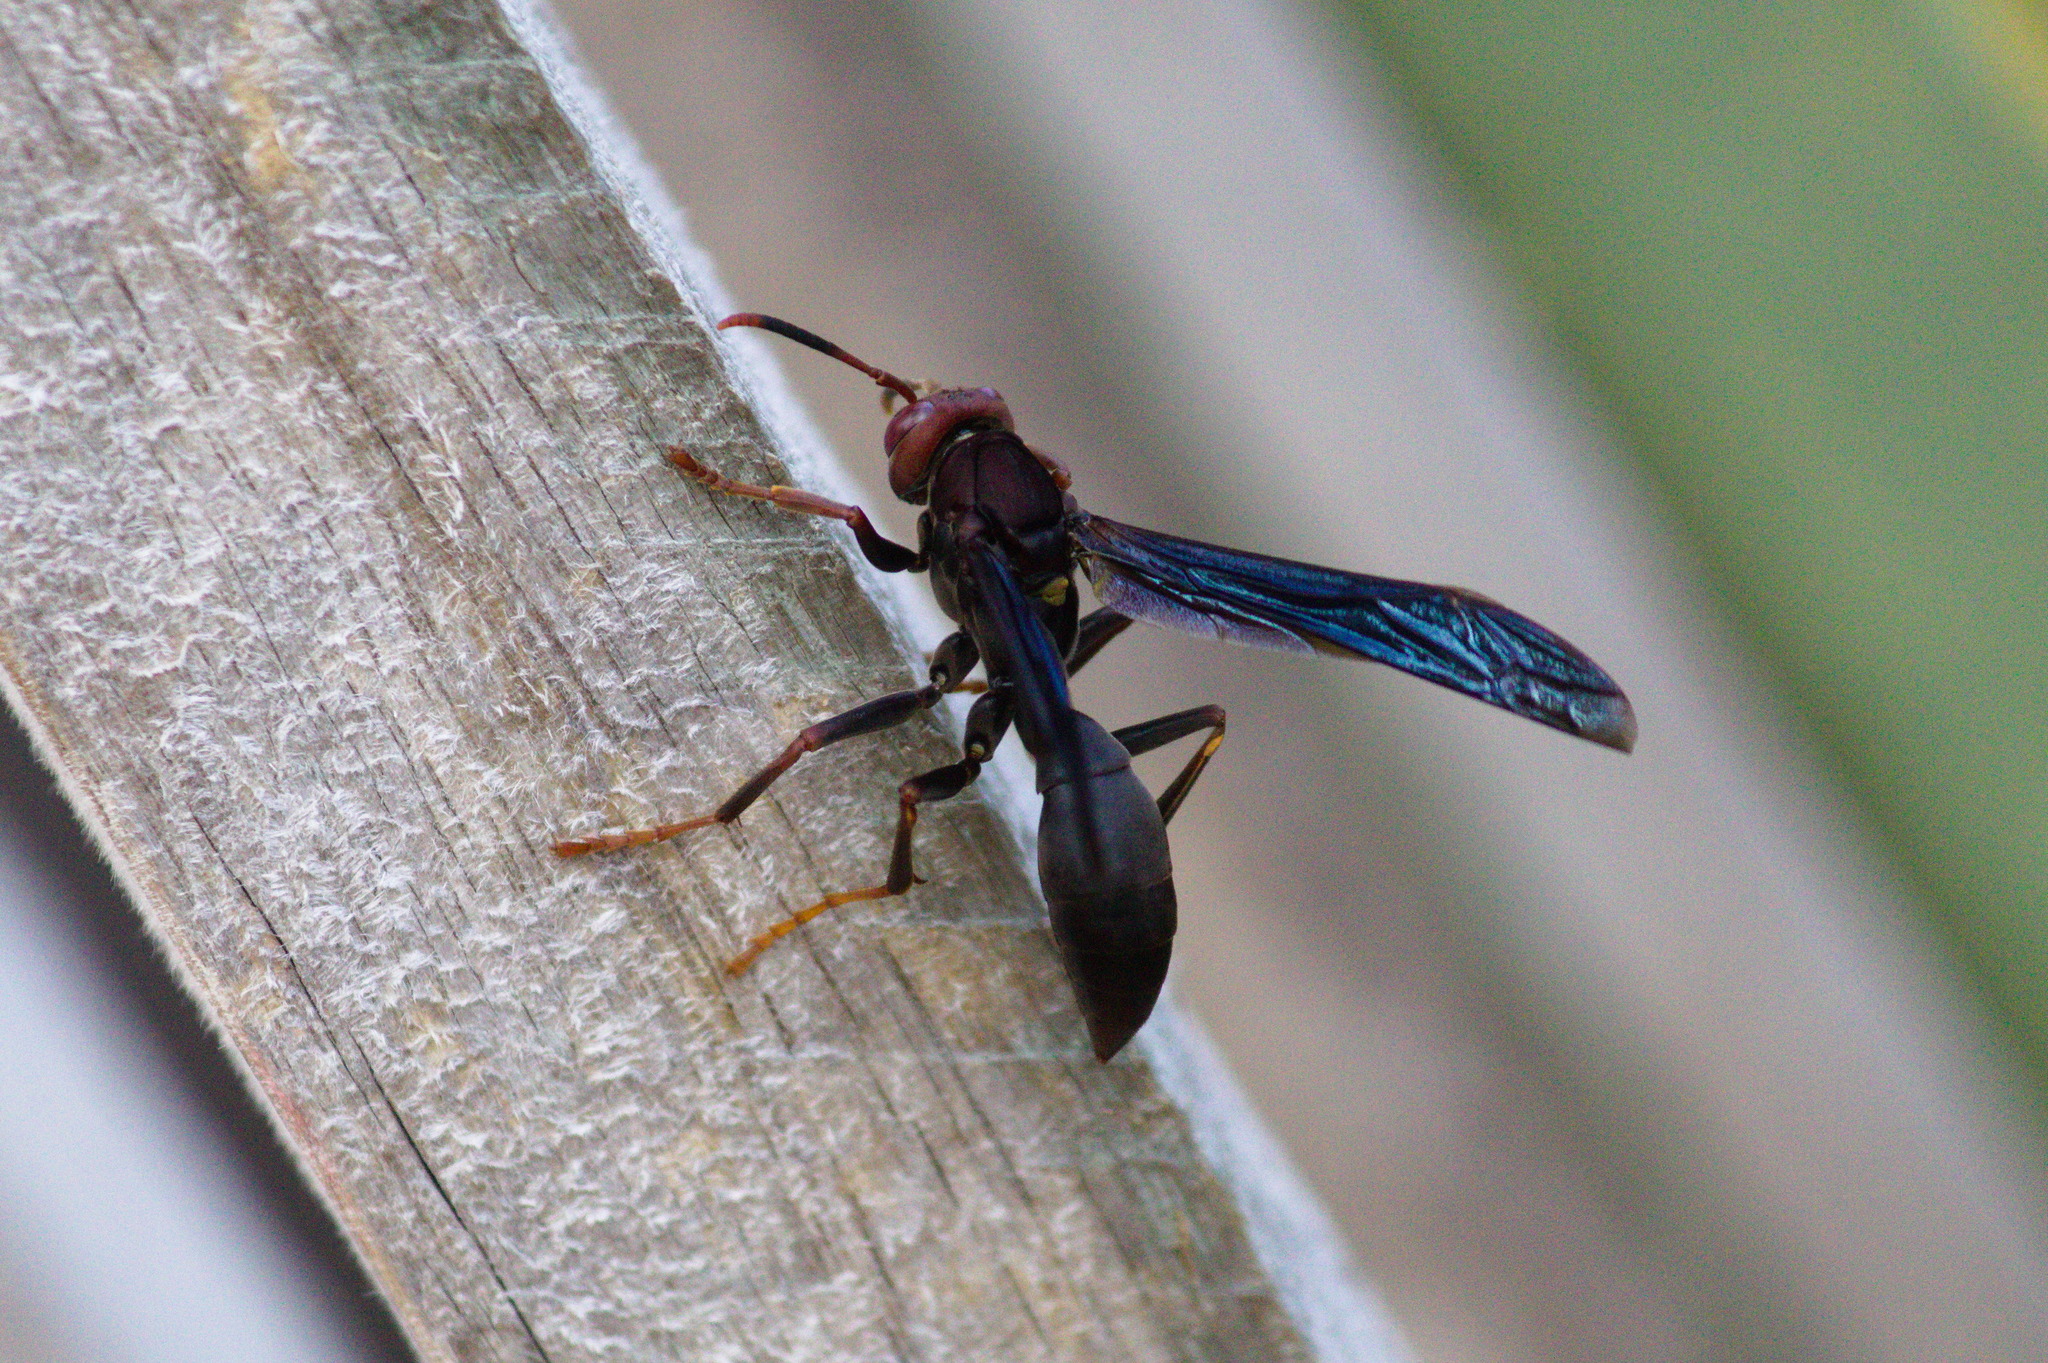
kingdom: Animalia
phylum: Arthropoda
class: Insecta
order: Hymenoptera
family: Eumenidae
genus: Polistes
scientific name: Polistes erythrocephalus
